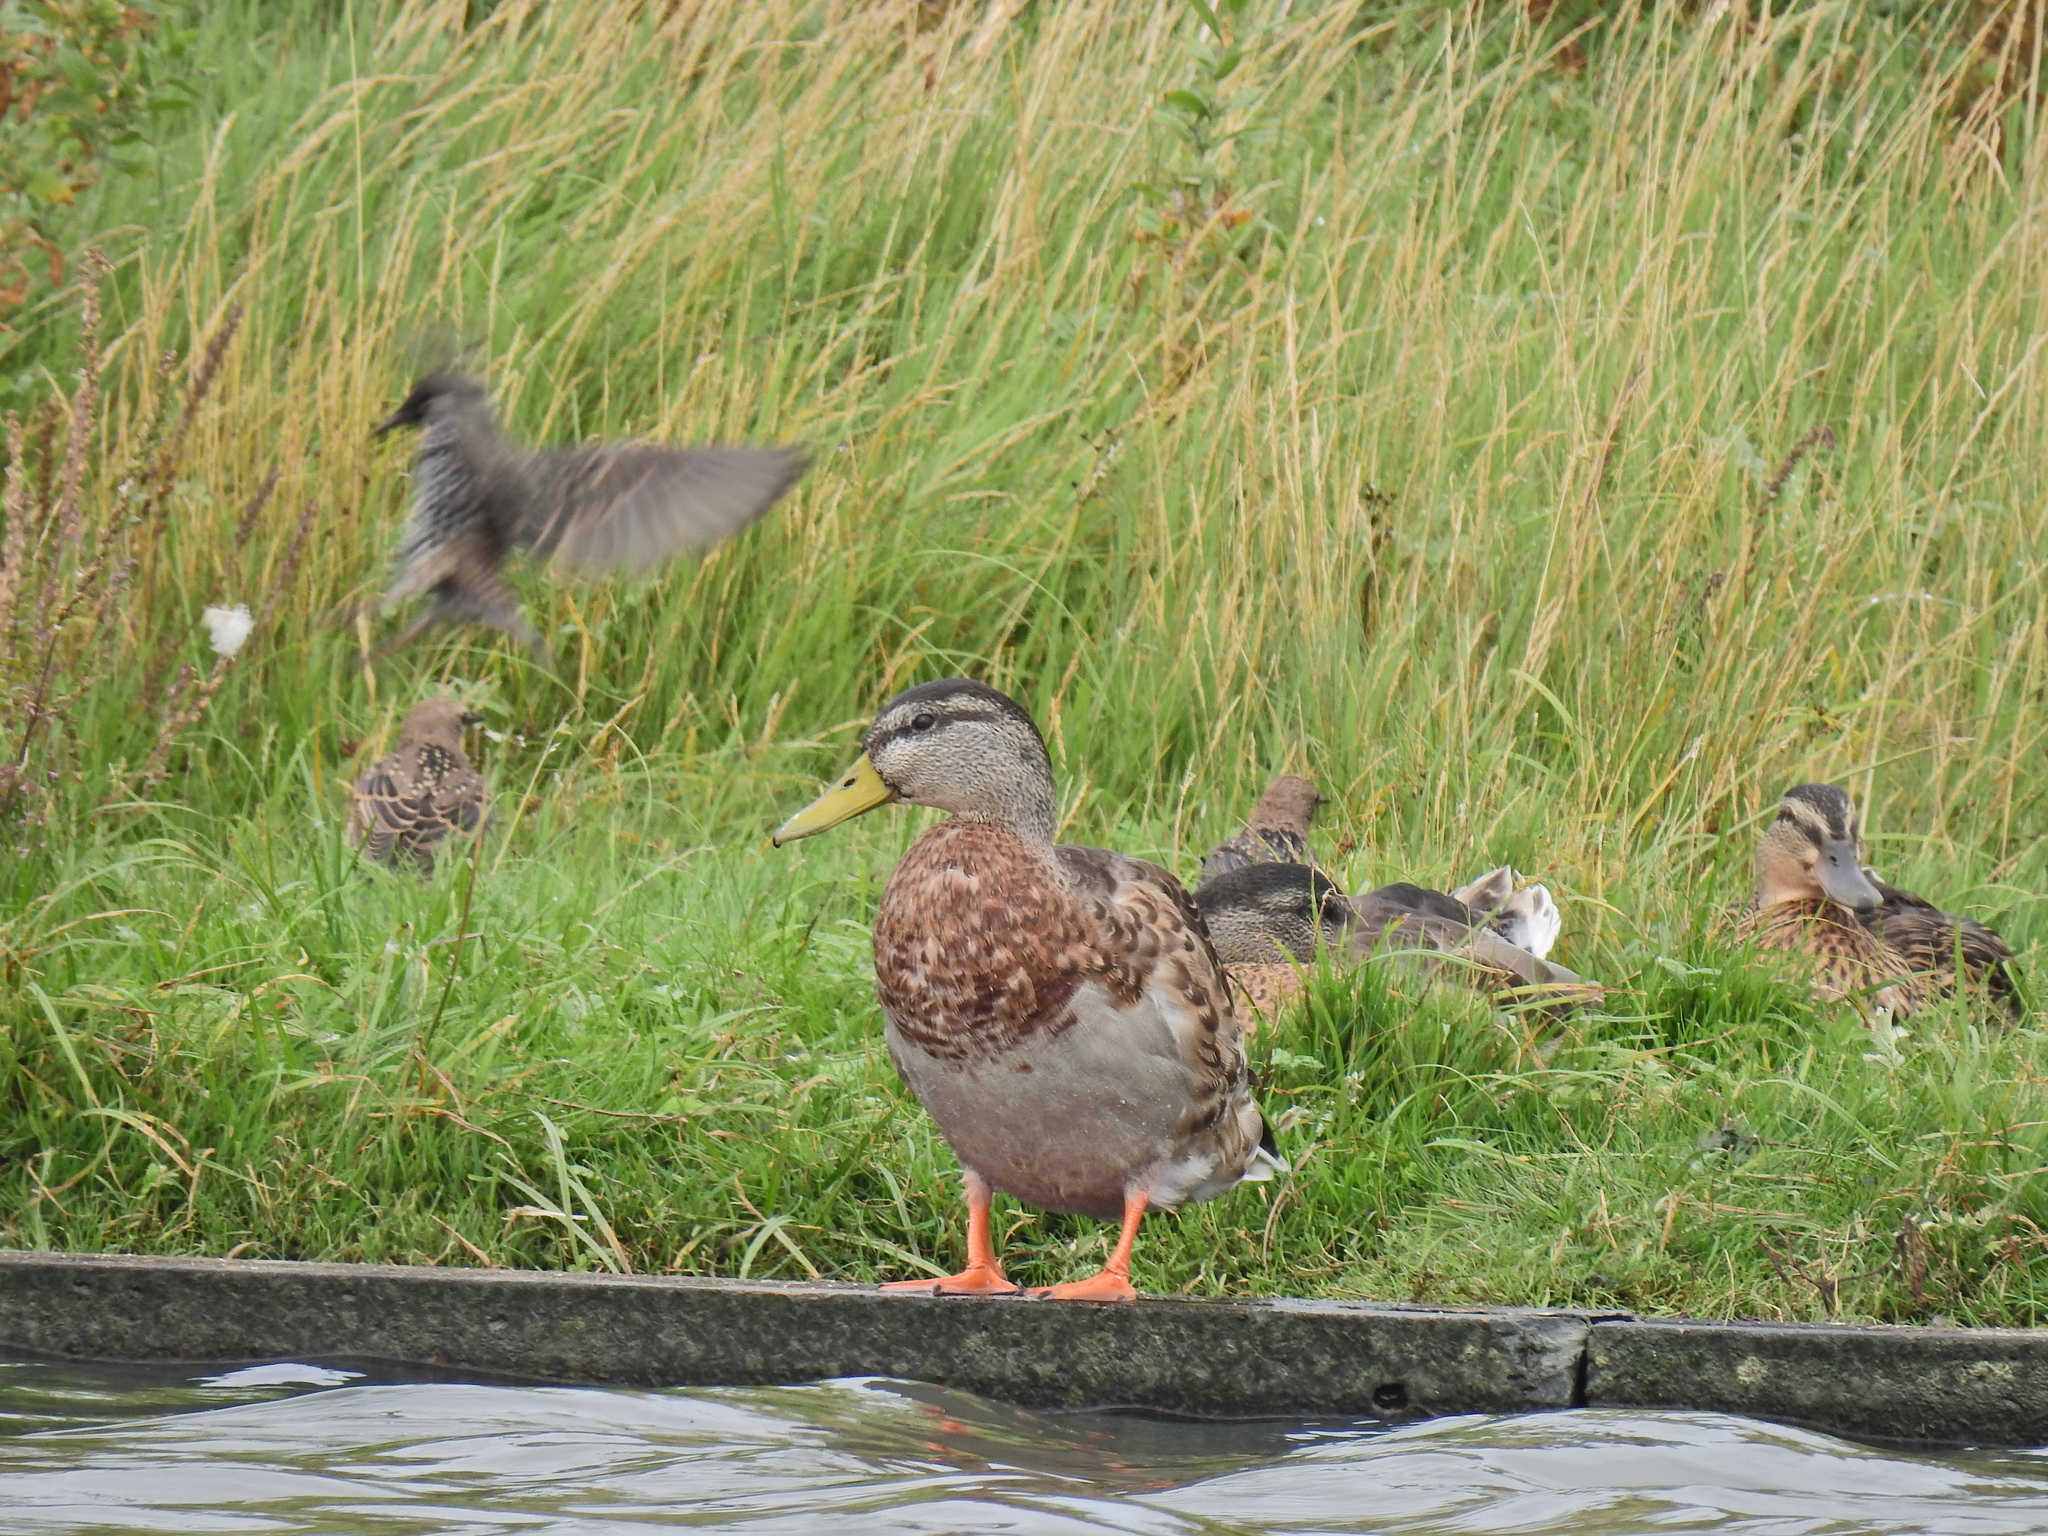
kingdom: Animalia
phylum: Chordata
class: Aves
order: Anseriformes
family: Anatidae
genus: Anas
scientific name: Anas platyrhynchos
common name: Mallard
